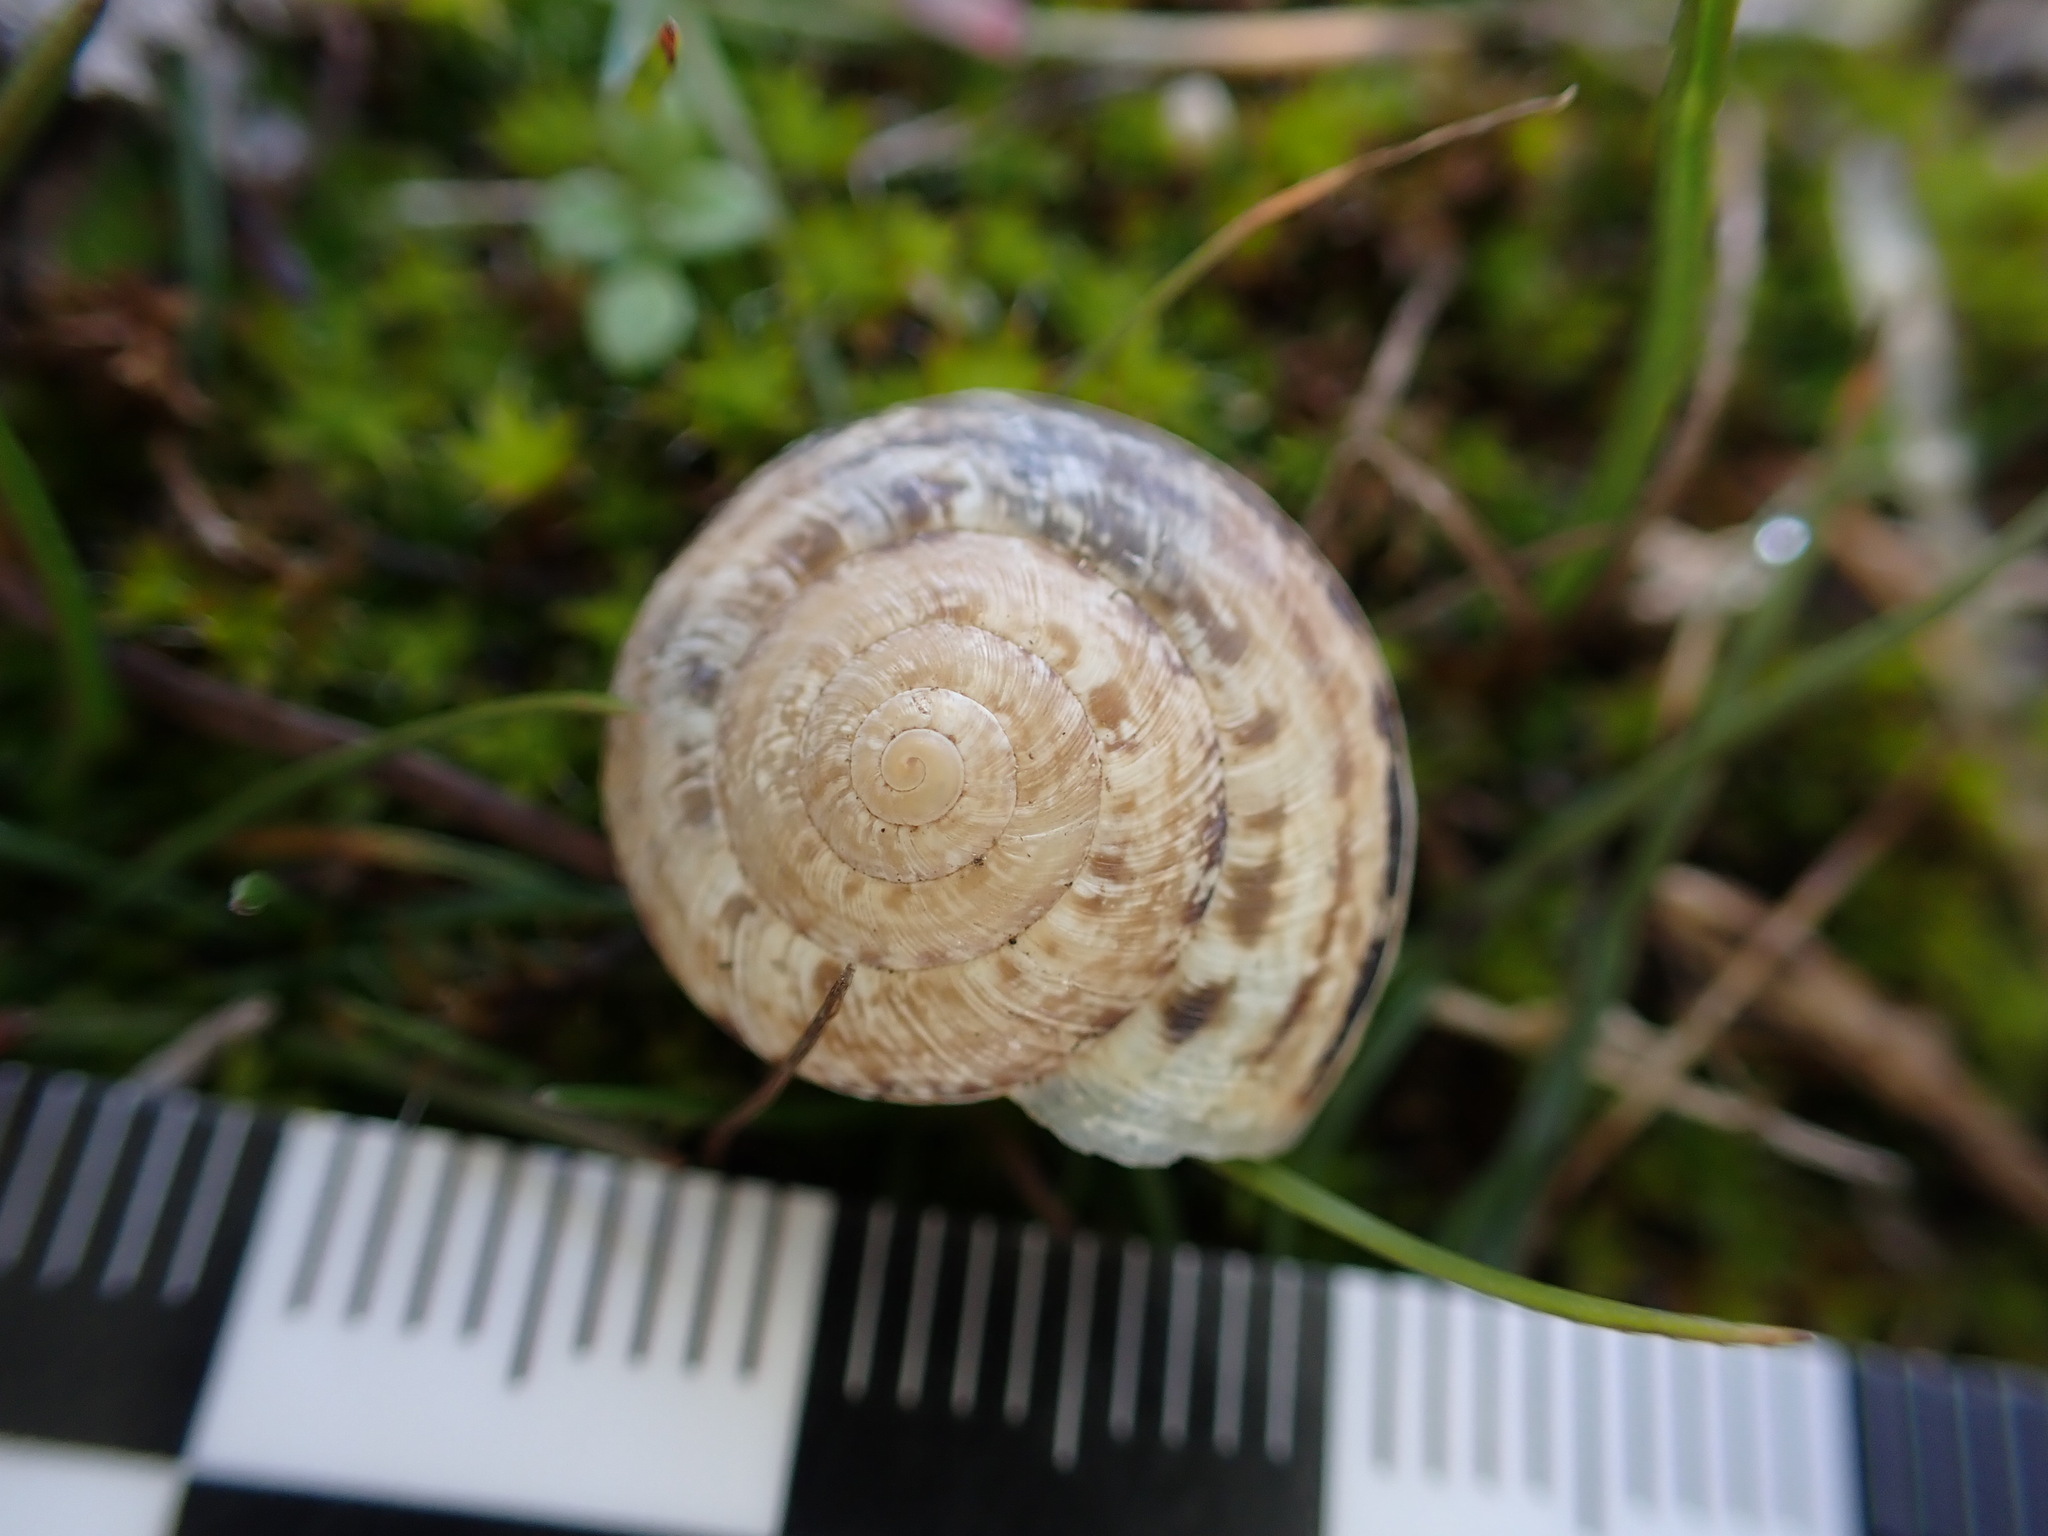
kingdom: Animalia
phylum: Mollusca
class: Gastropoda
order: Stylommatophora
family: Geomitridae
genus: Xerosecta
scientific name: Xerosecta cespitum
